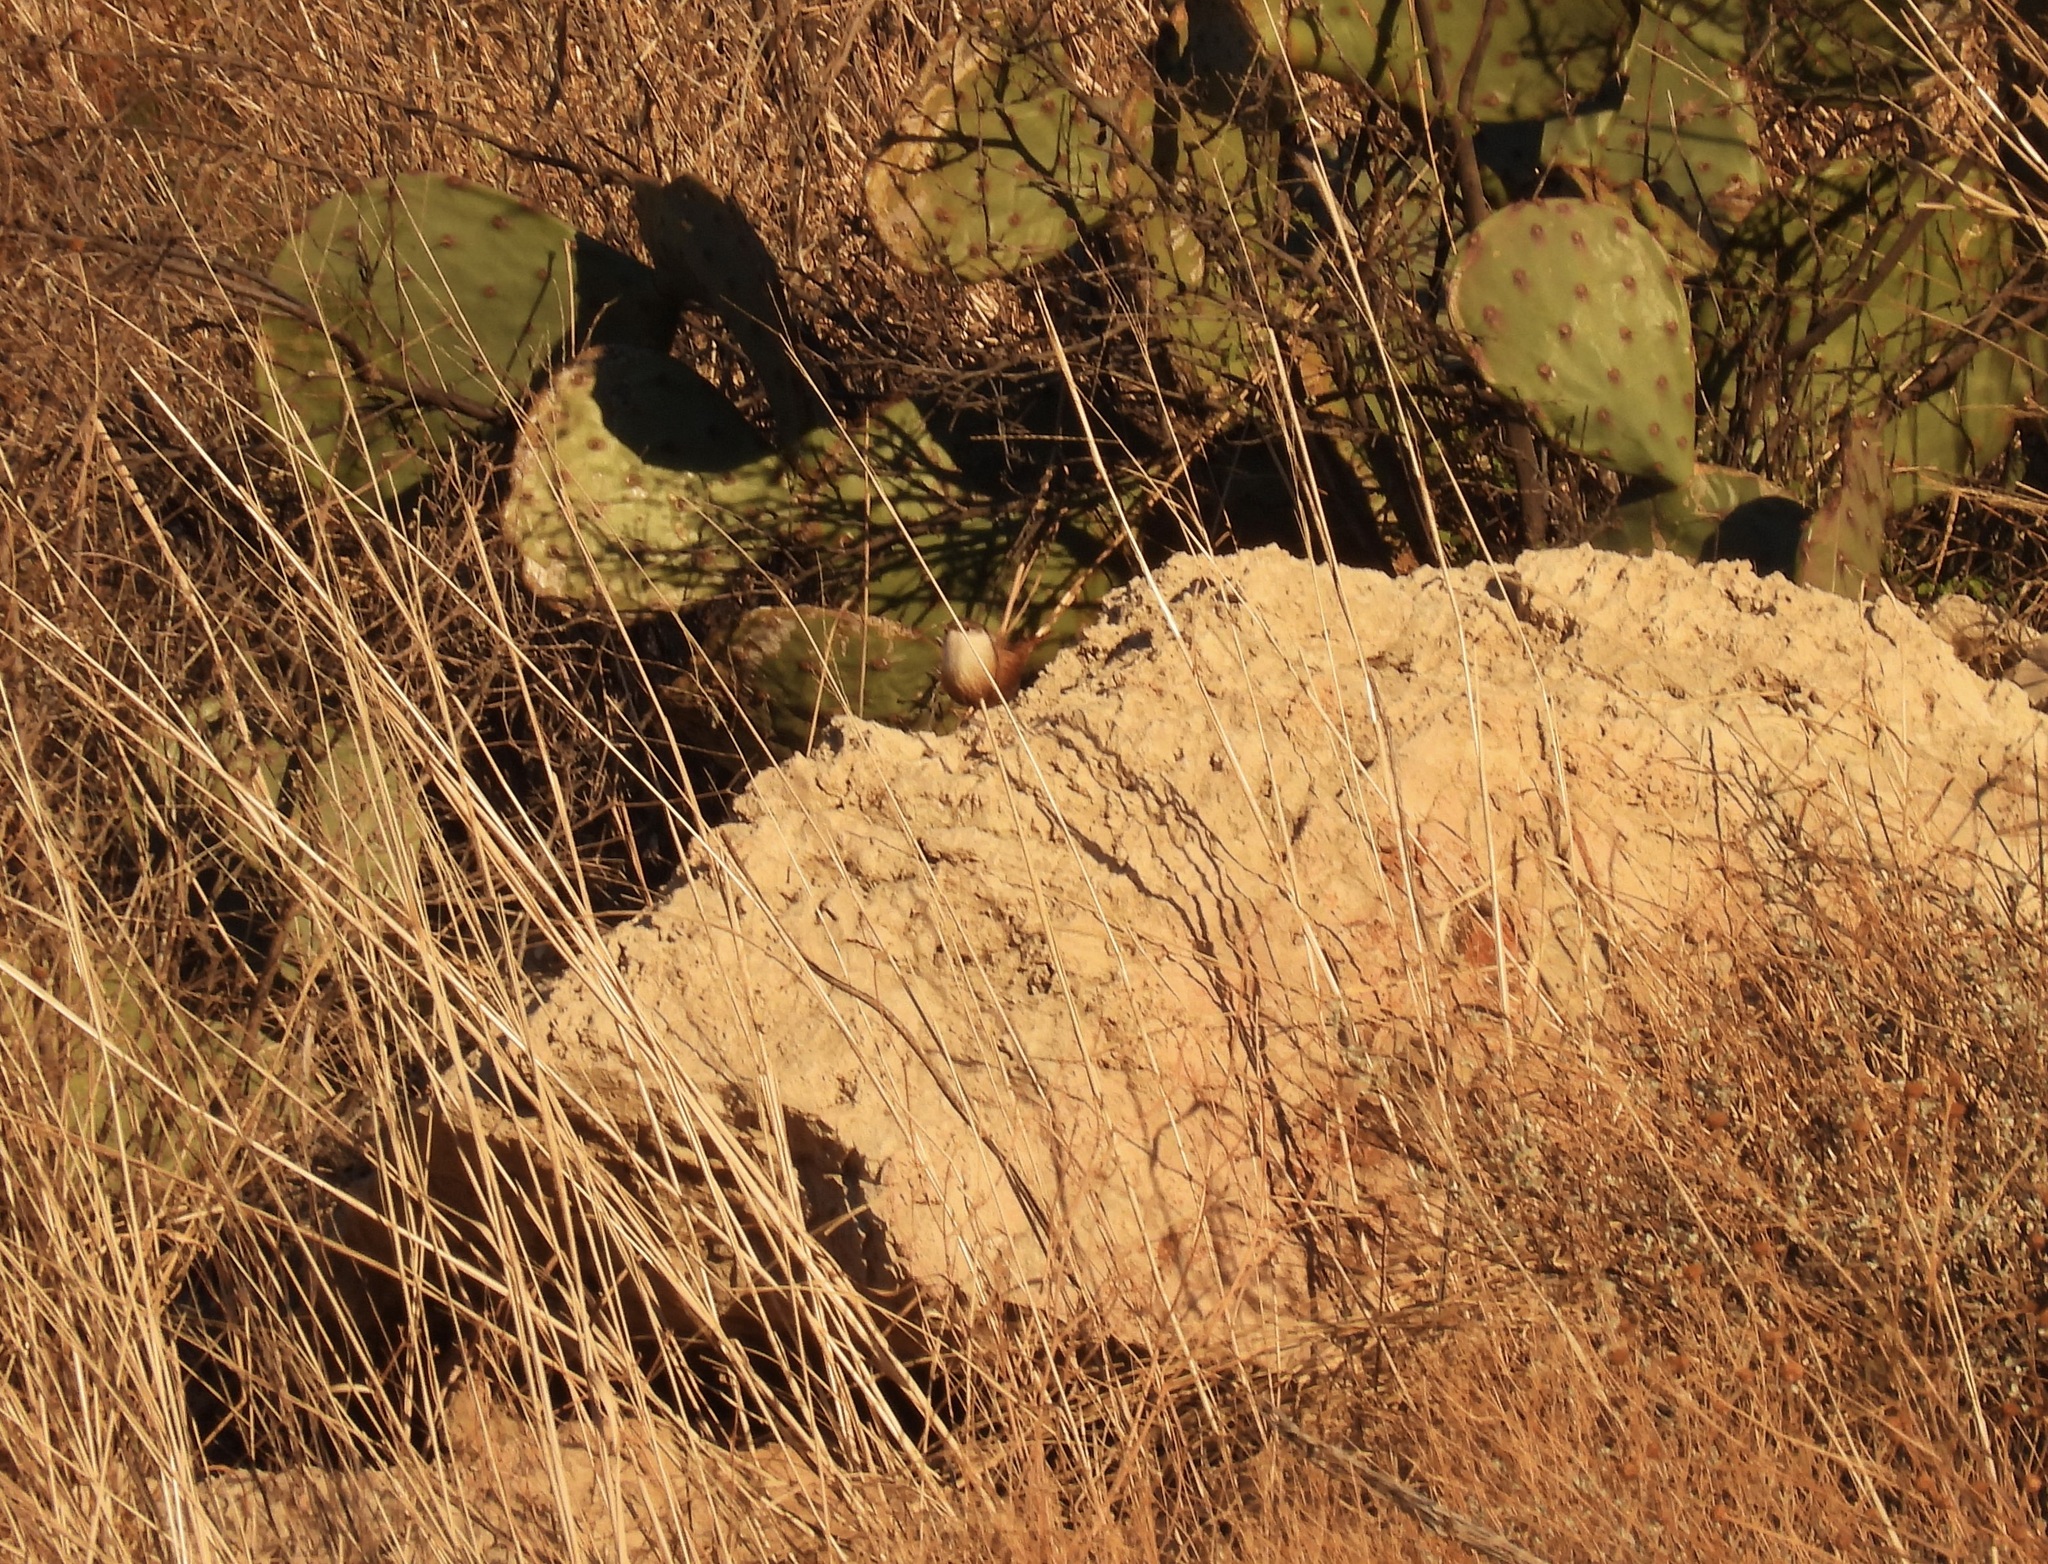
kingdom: Animalia
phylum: Chordata
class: Aves
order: Passeriformes
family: Troglodytidae
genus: Catherpes
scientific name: Catherpes mexicanus
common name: Canyon wren
